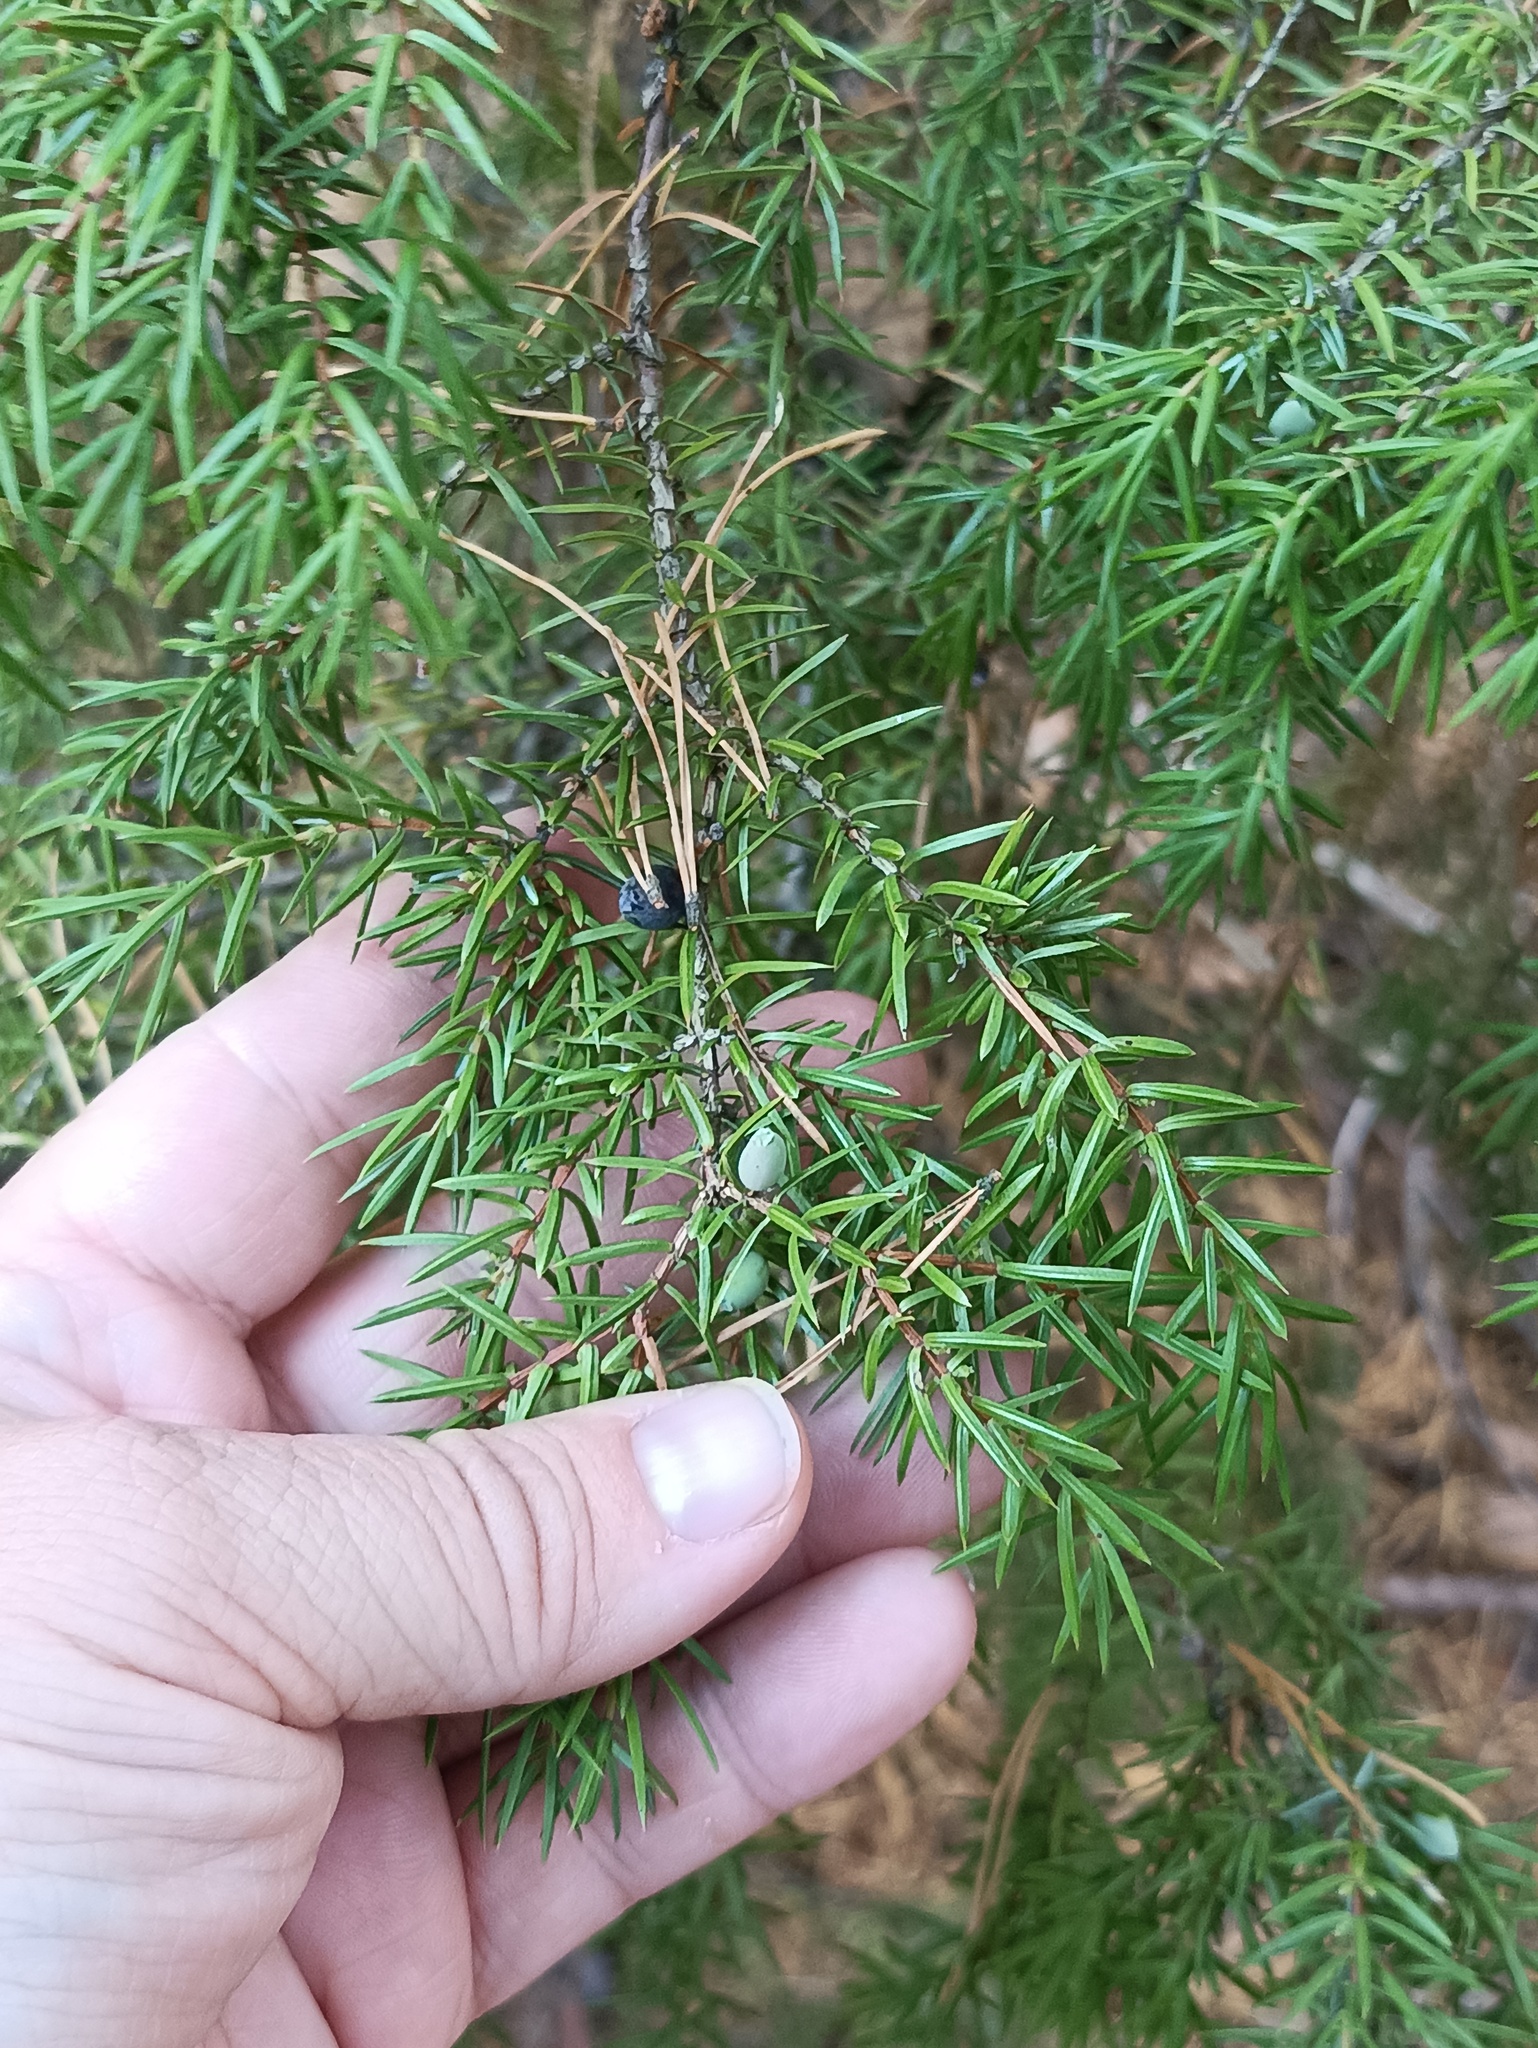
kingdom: Plantae
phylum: Tracheophyta
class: Pinopsida
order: Pinales
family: Cupressaceae
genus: Juniperus
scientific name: Juniperus communis
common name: Common juniper
